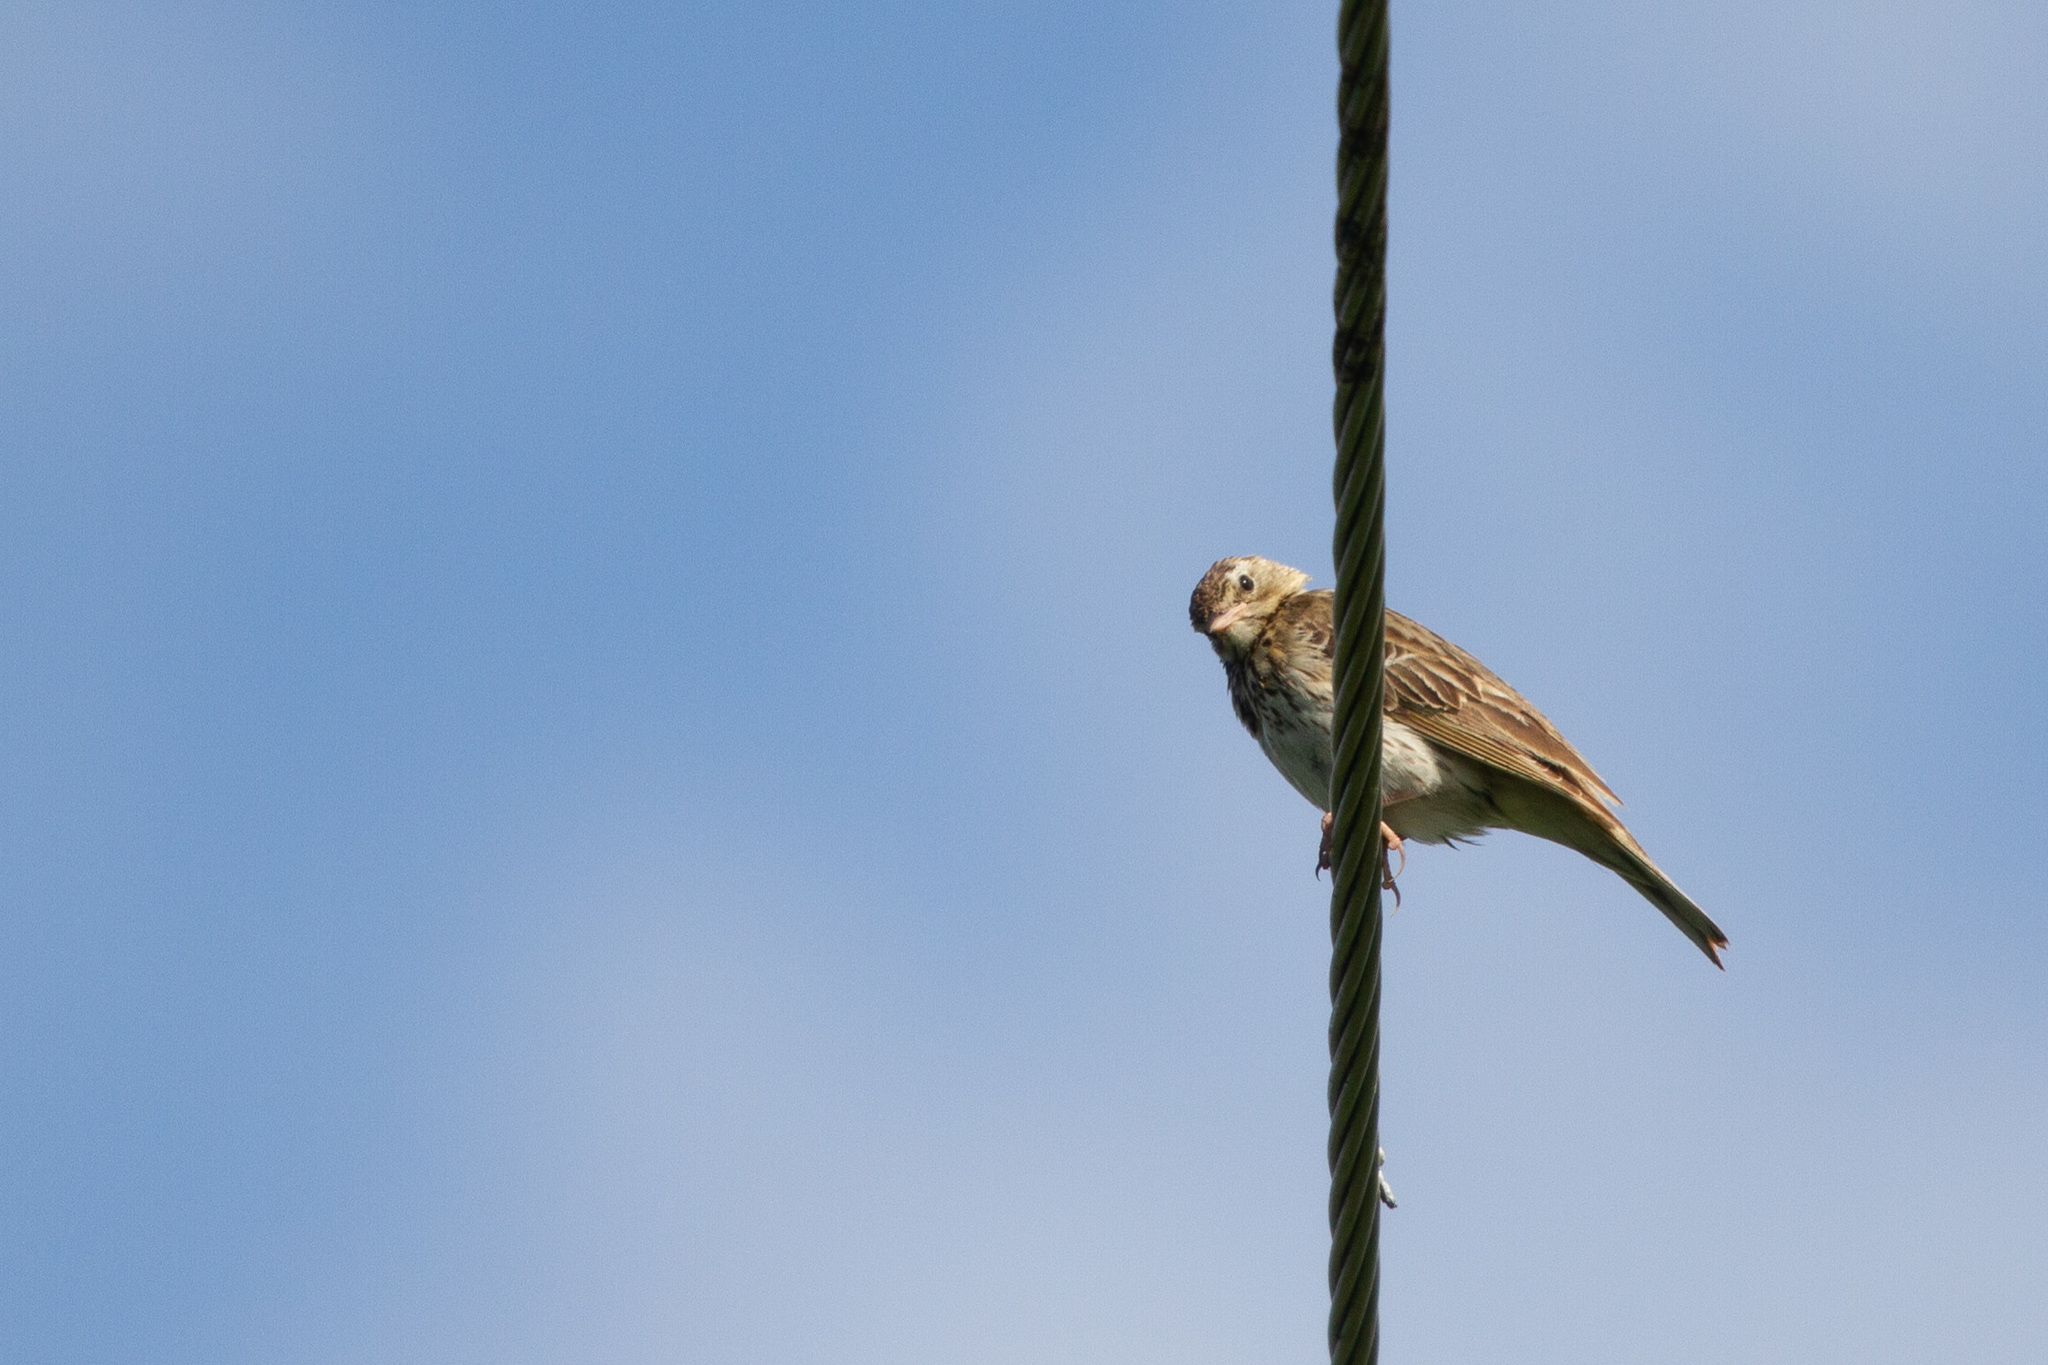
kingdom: Animalia
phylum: Chordata
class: Aves
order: Passeriformes
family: Motacillidae
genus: Anthus
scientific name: Anthus trivialis
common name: Tree pipit
